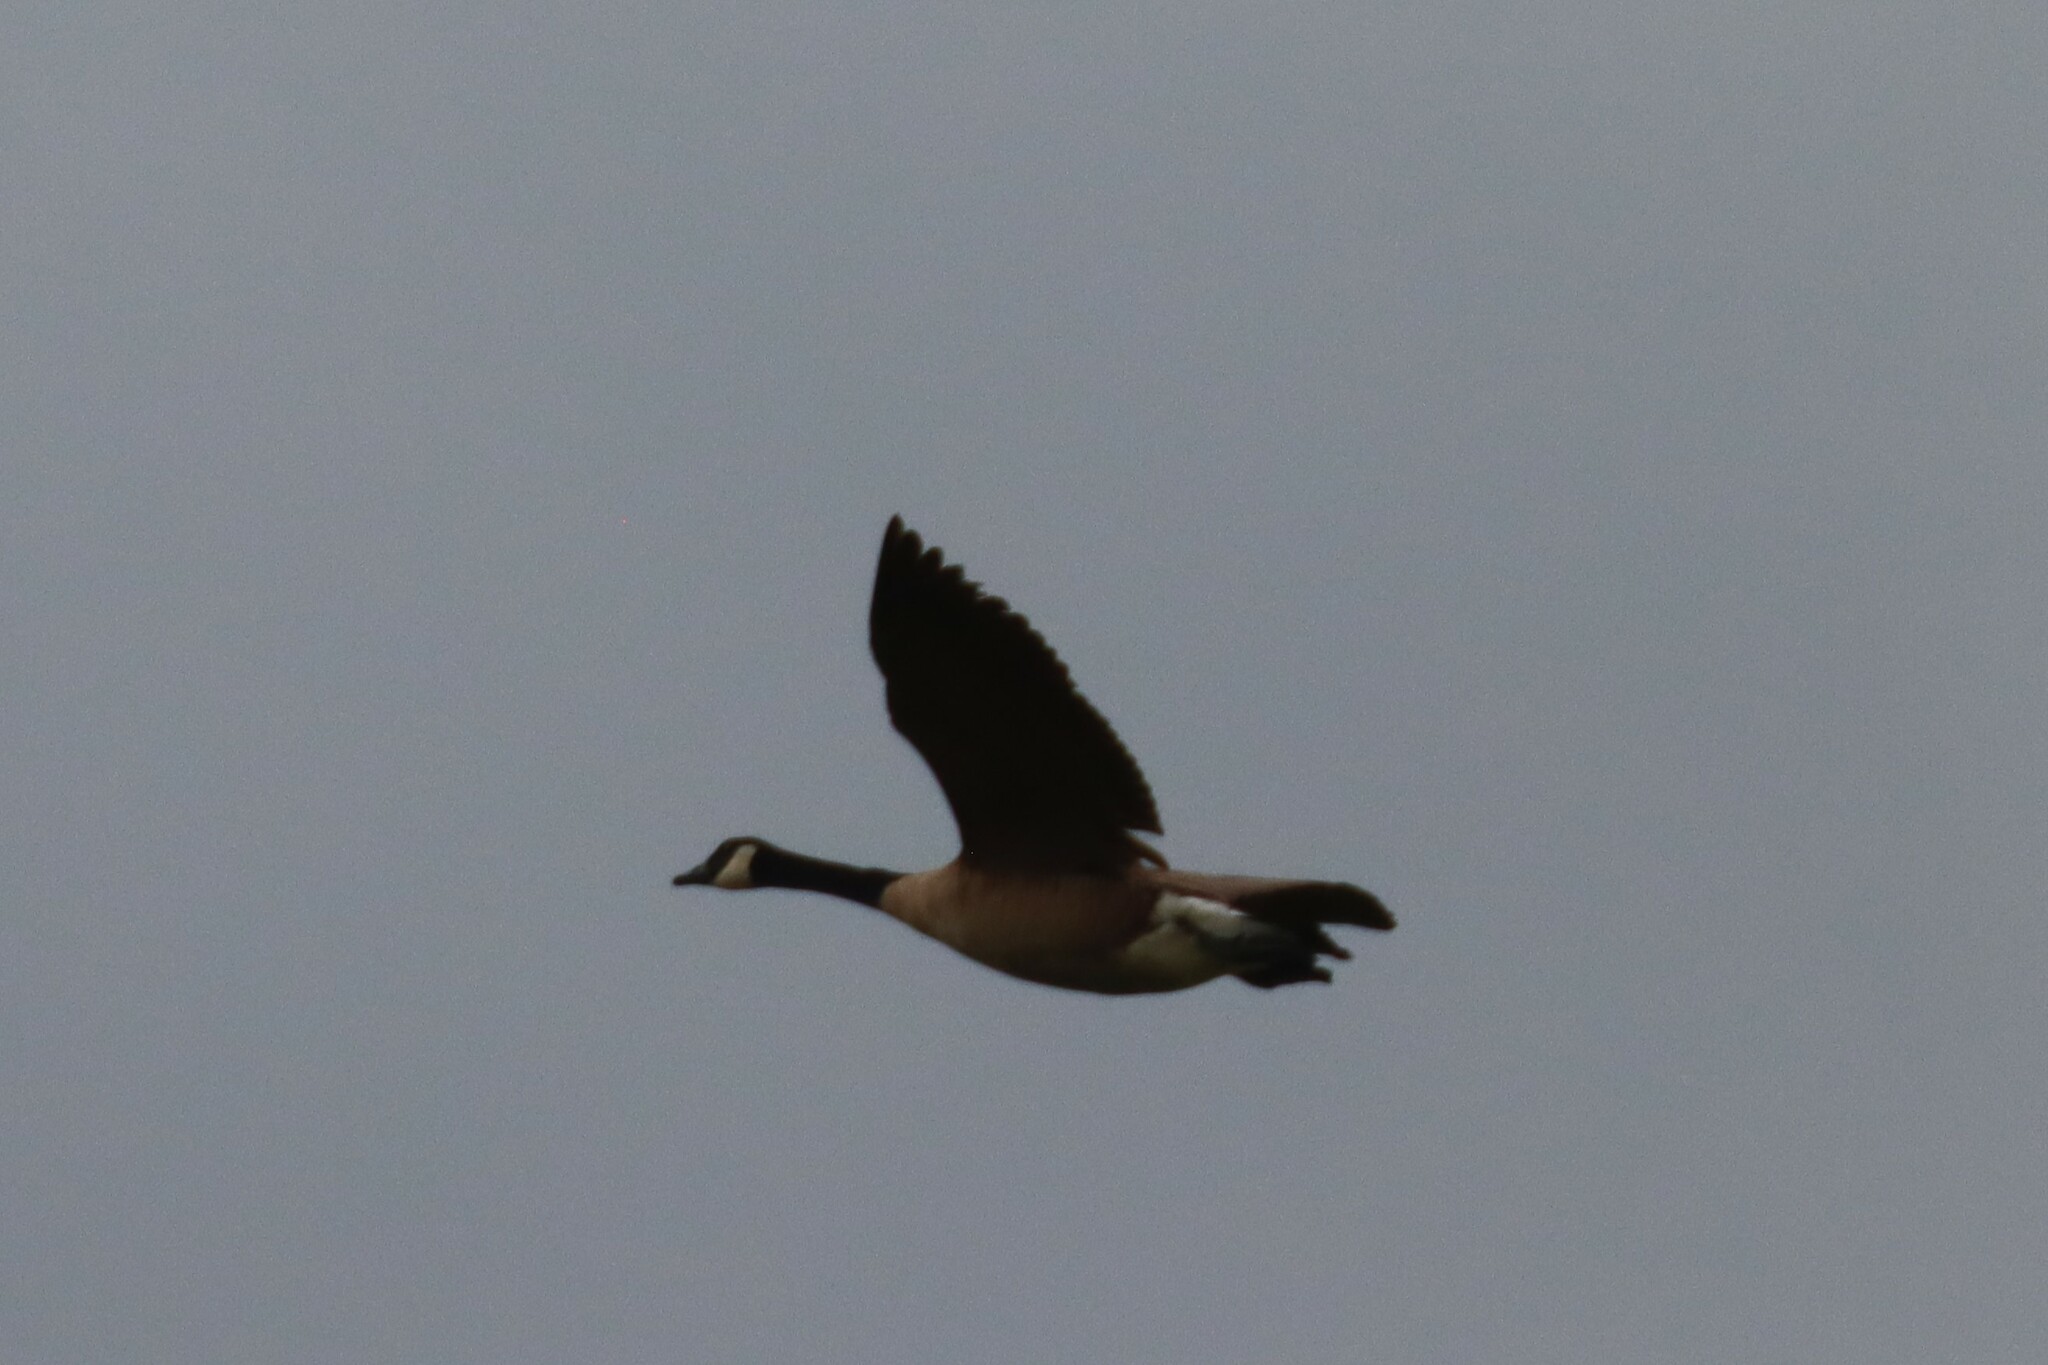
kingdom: Animalia
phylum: Chordata
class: Aves
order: Anseriformes
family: Anatidae
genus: Branta
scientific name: Branta canadensis
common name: Canada goose
